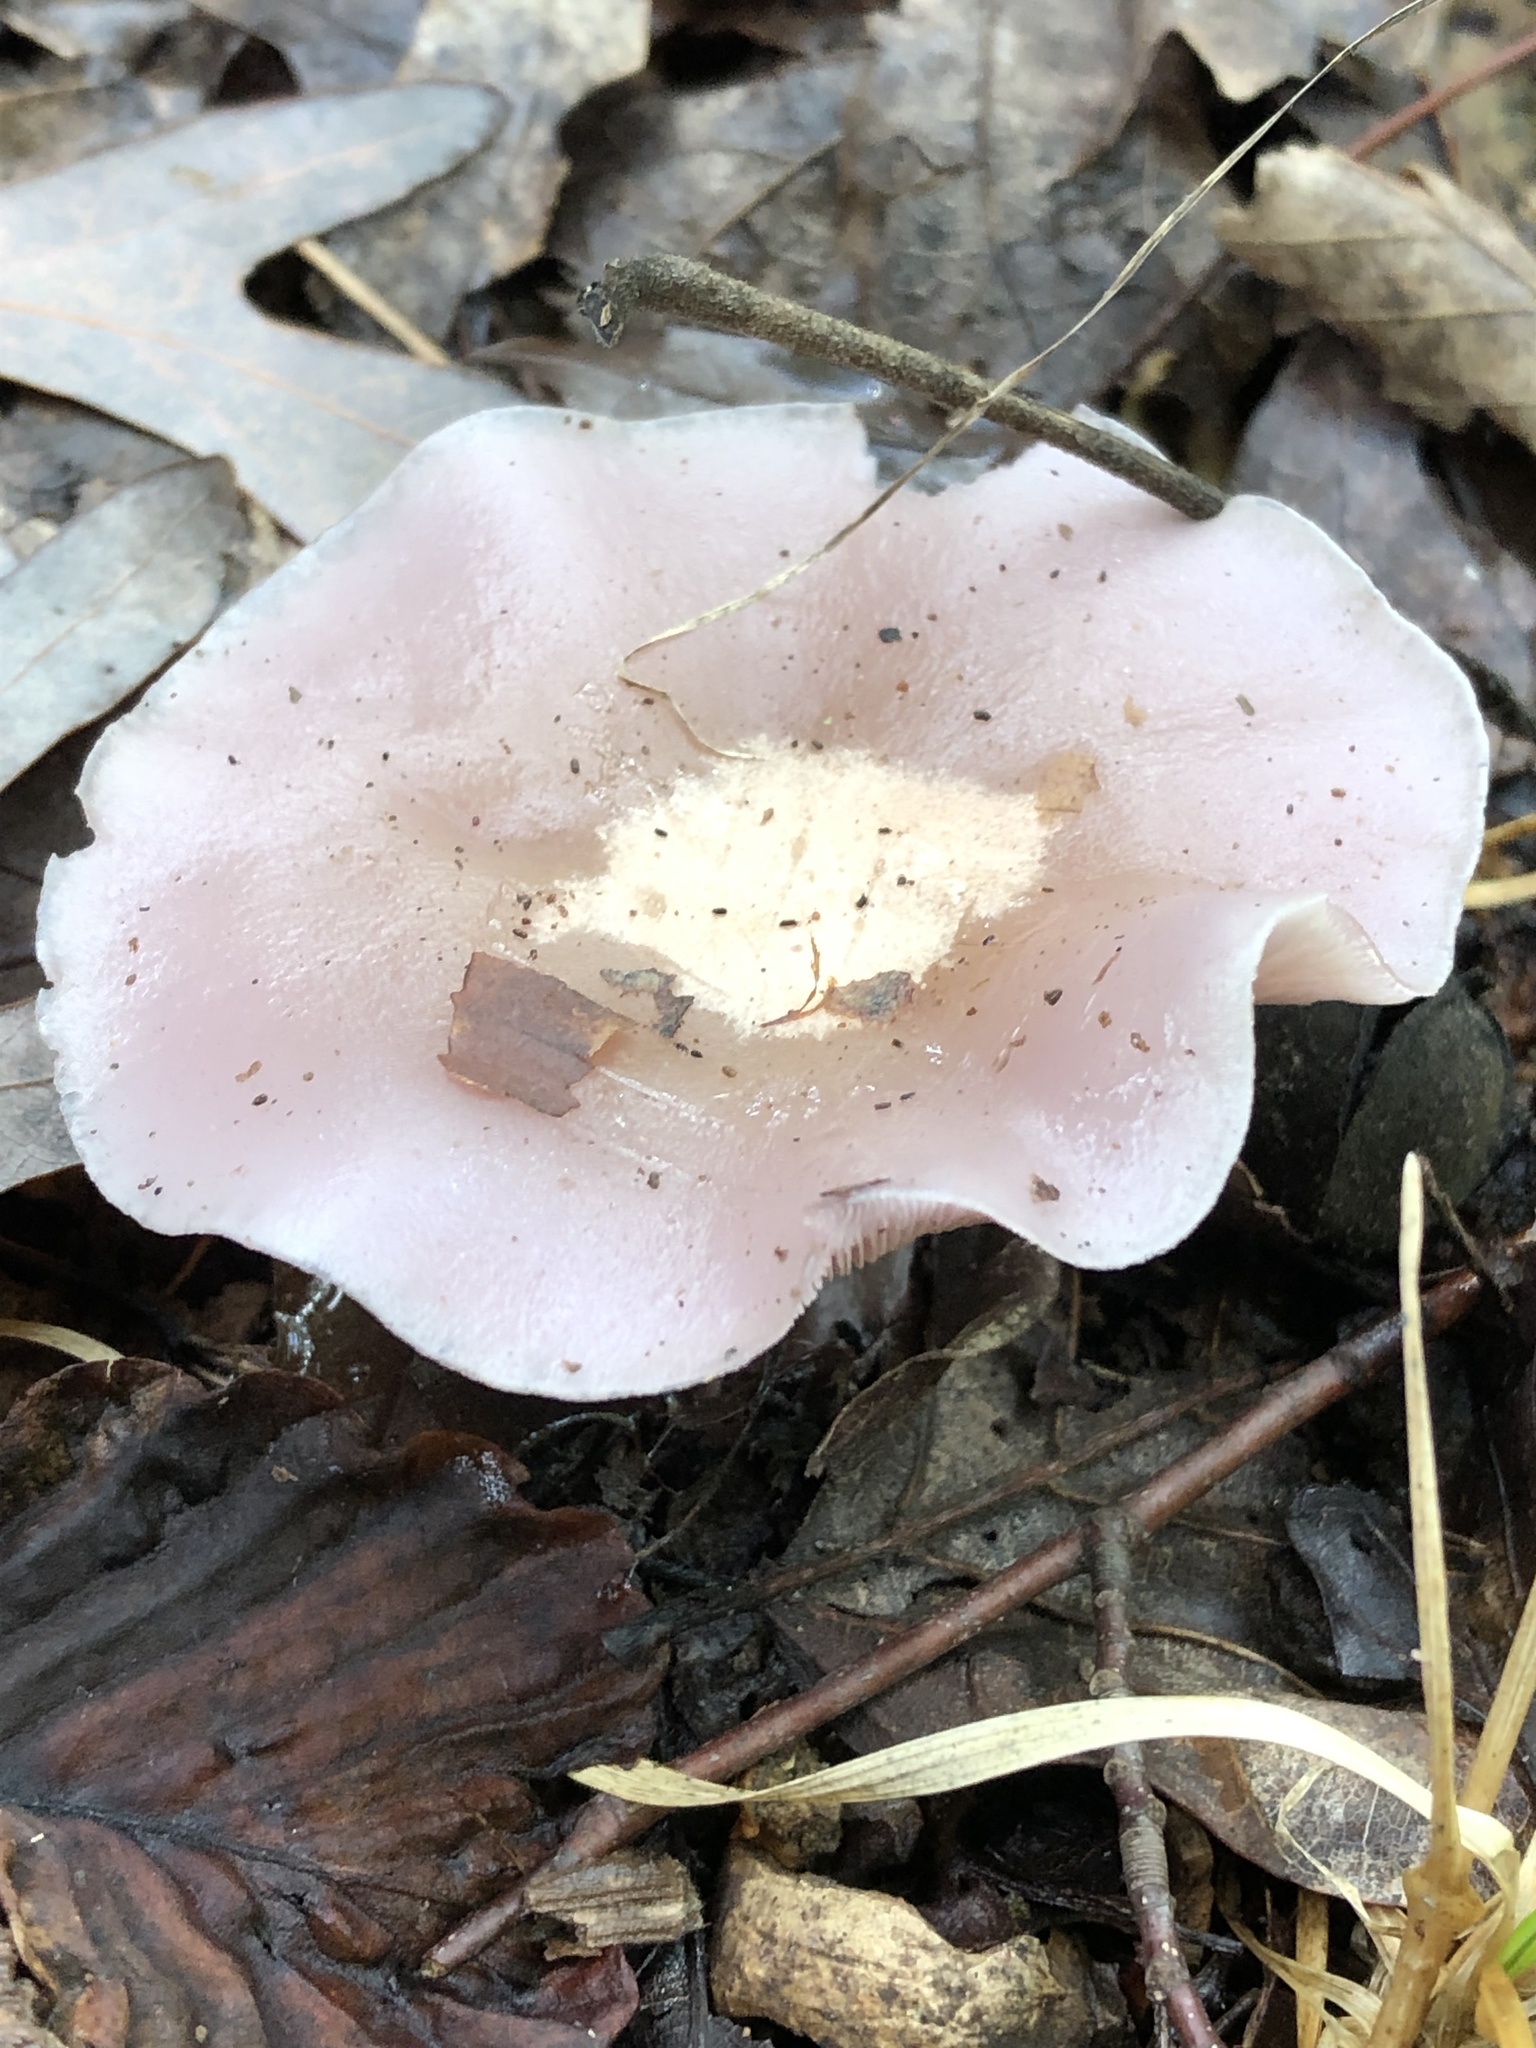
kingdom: Fungi
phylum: Basidiomycota
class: Agaricomycetes
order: Agaricales
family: Tricholomataceae
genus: Collybia
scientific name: Collybia
